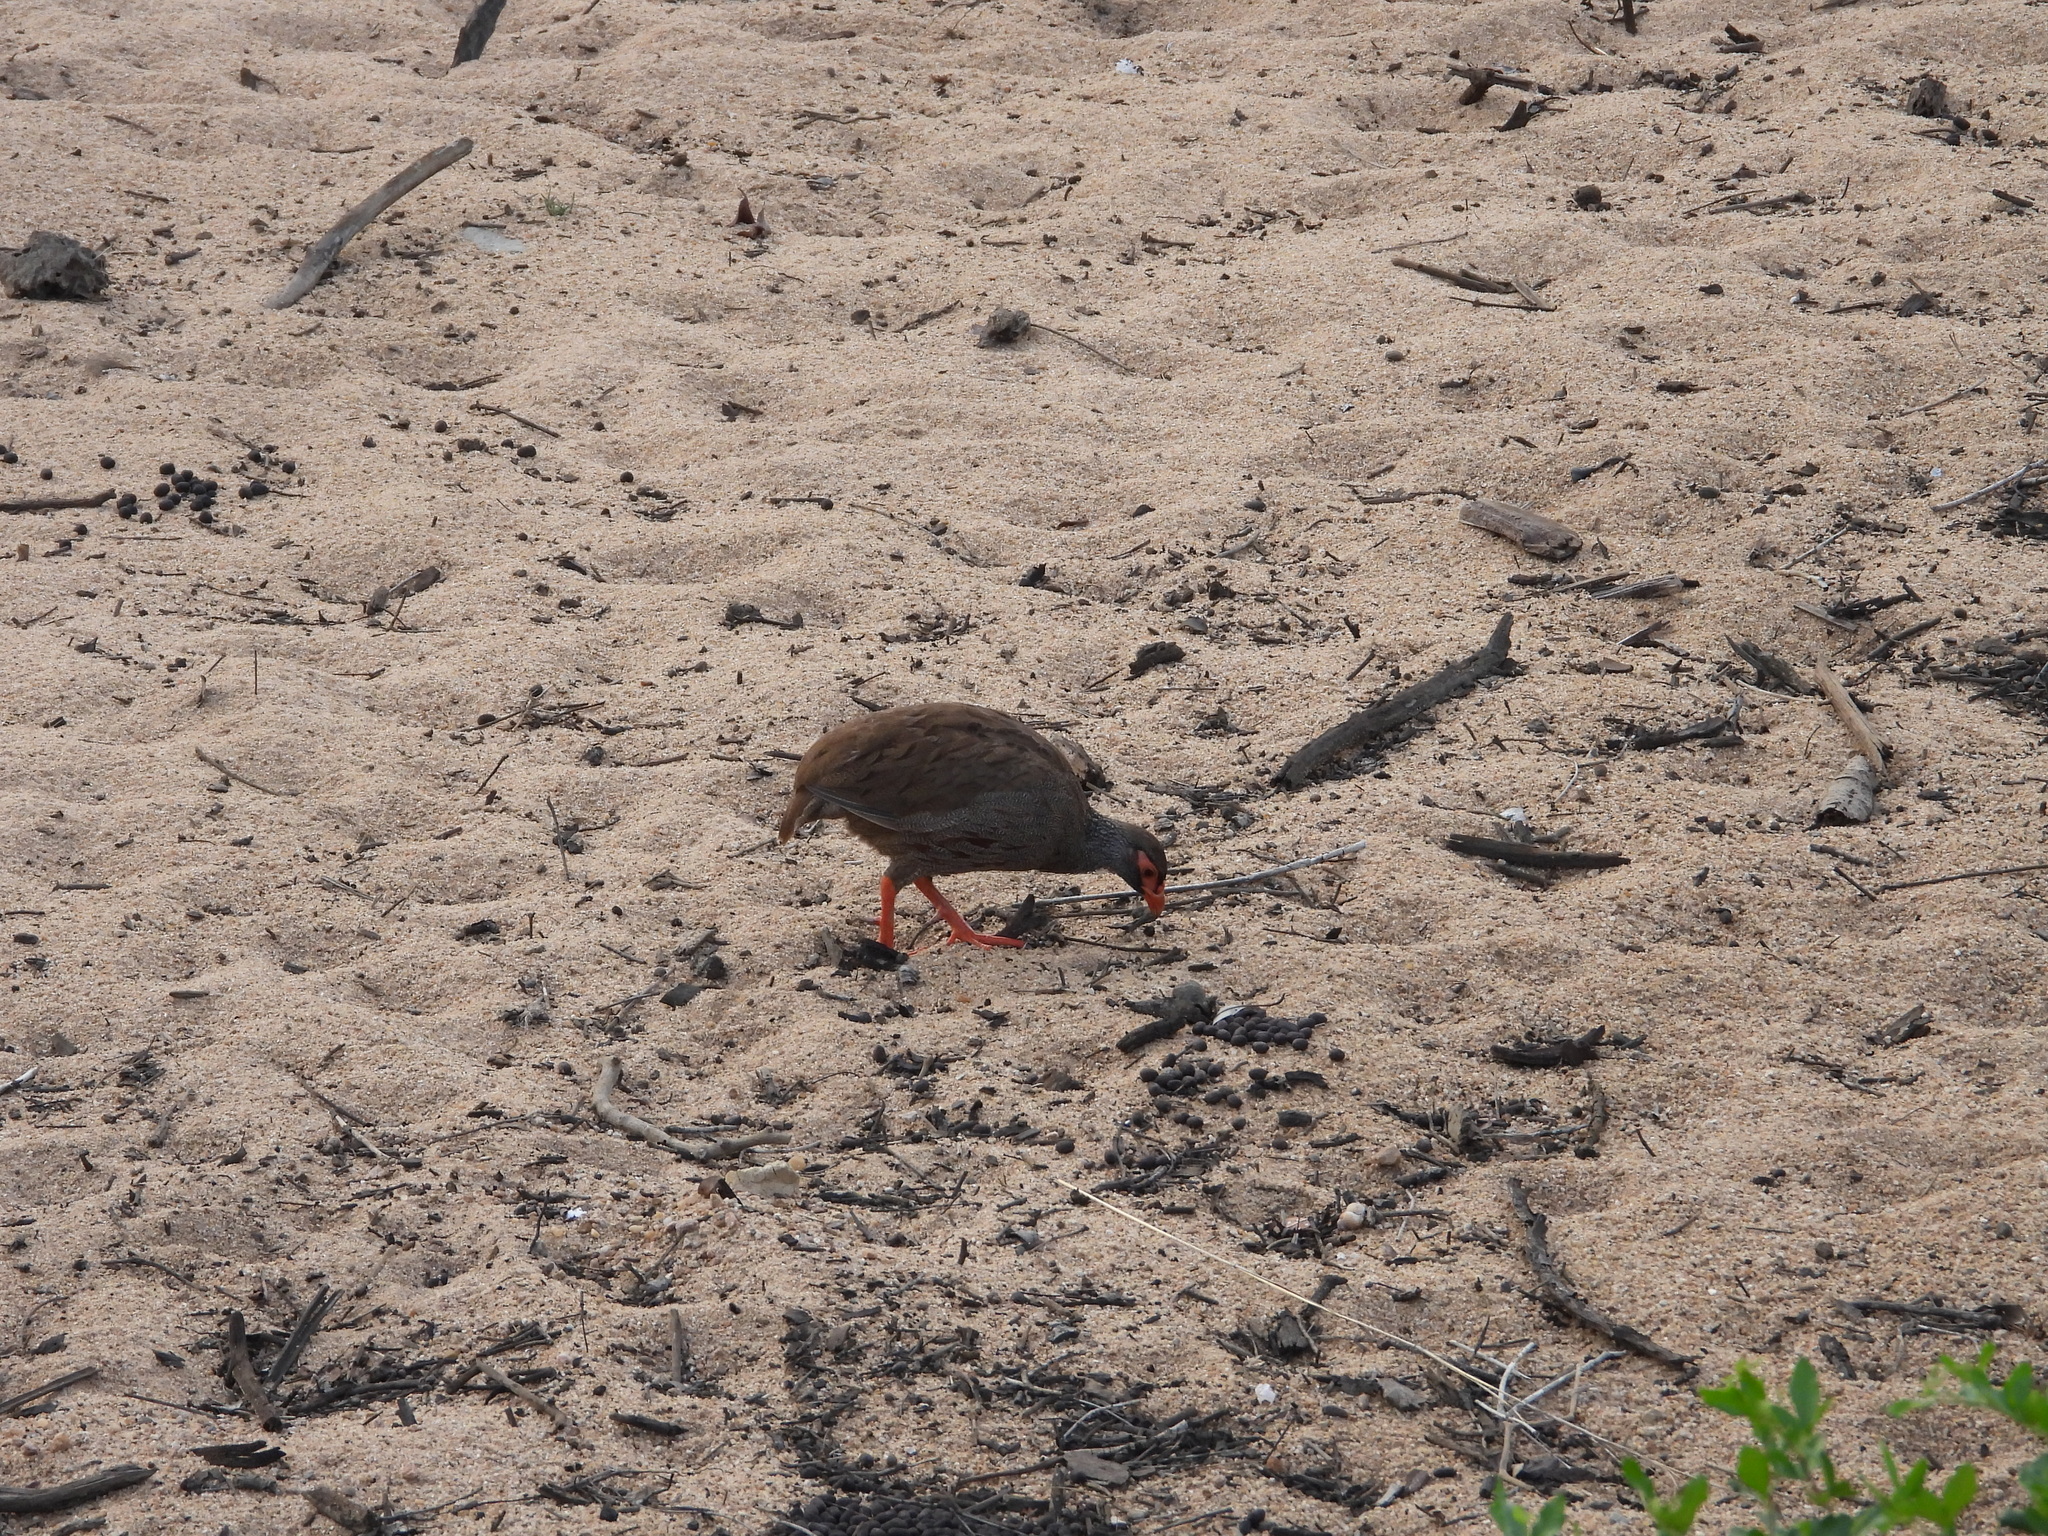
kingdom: Animalia
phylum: Chordata
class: Aves
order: Galliformes
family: Phasianidae
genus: Pternistis
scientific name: Pternistis afer
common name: Red-necked spurfowl
